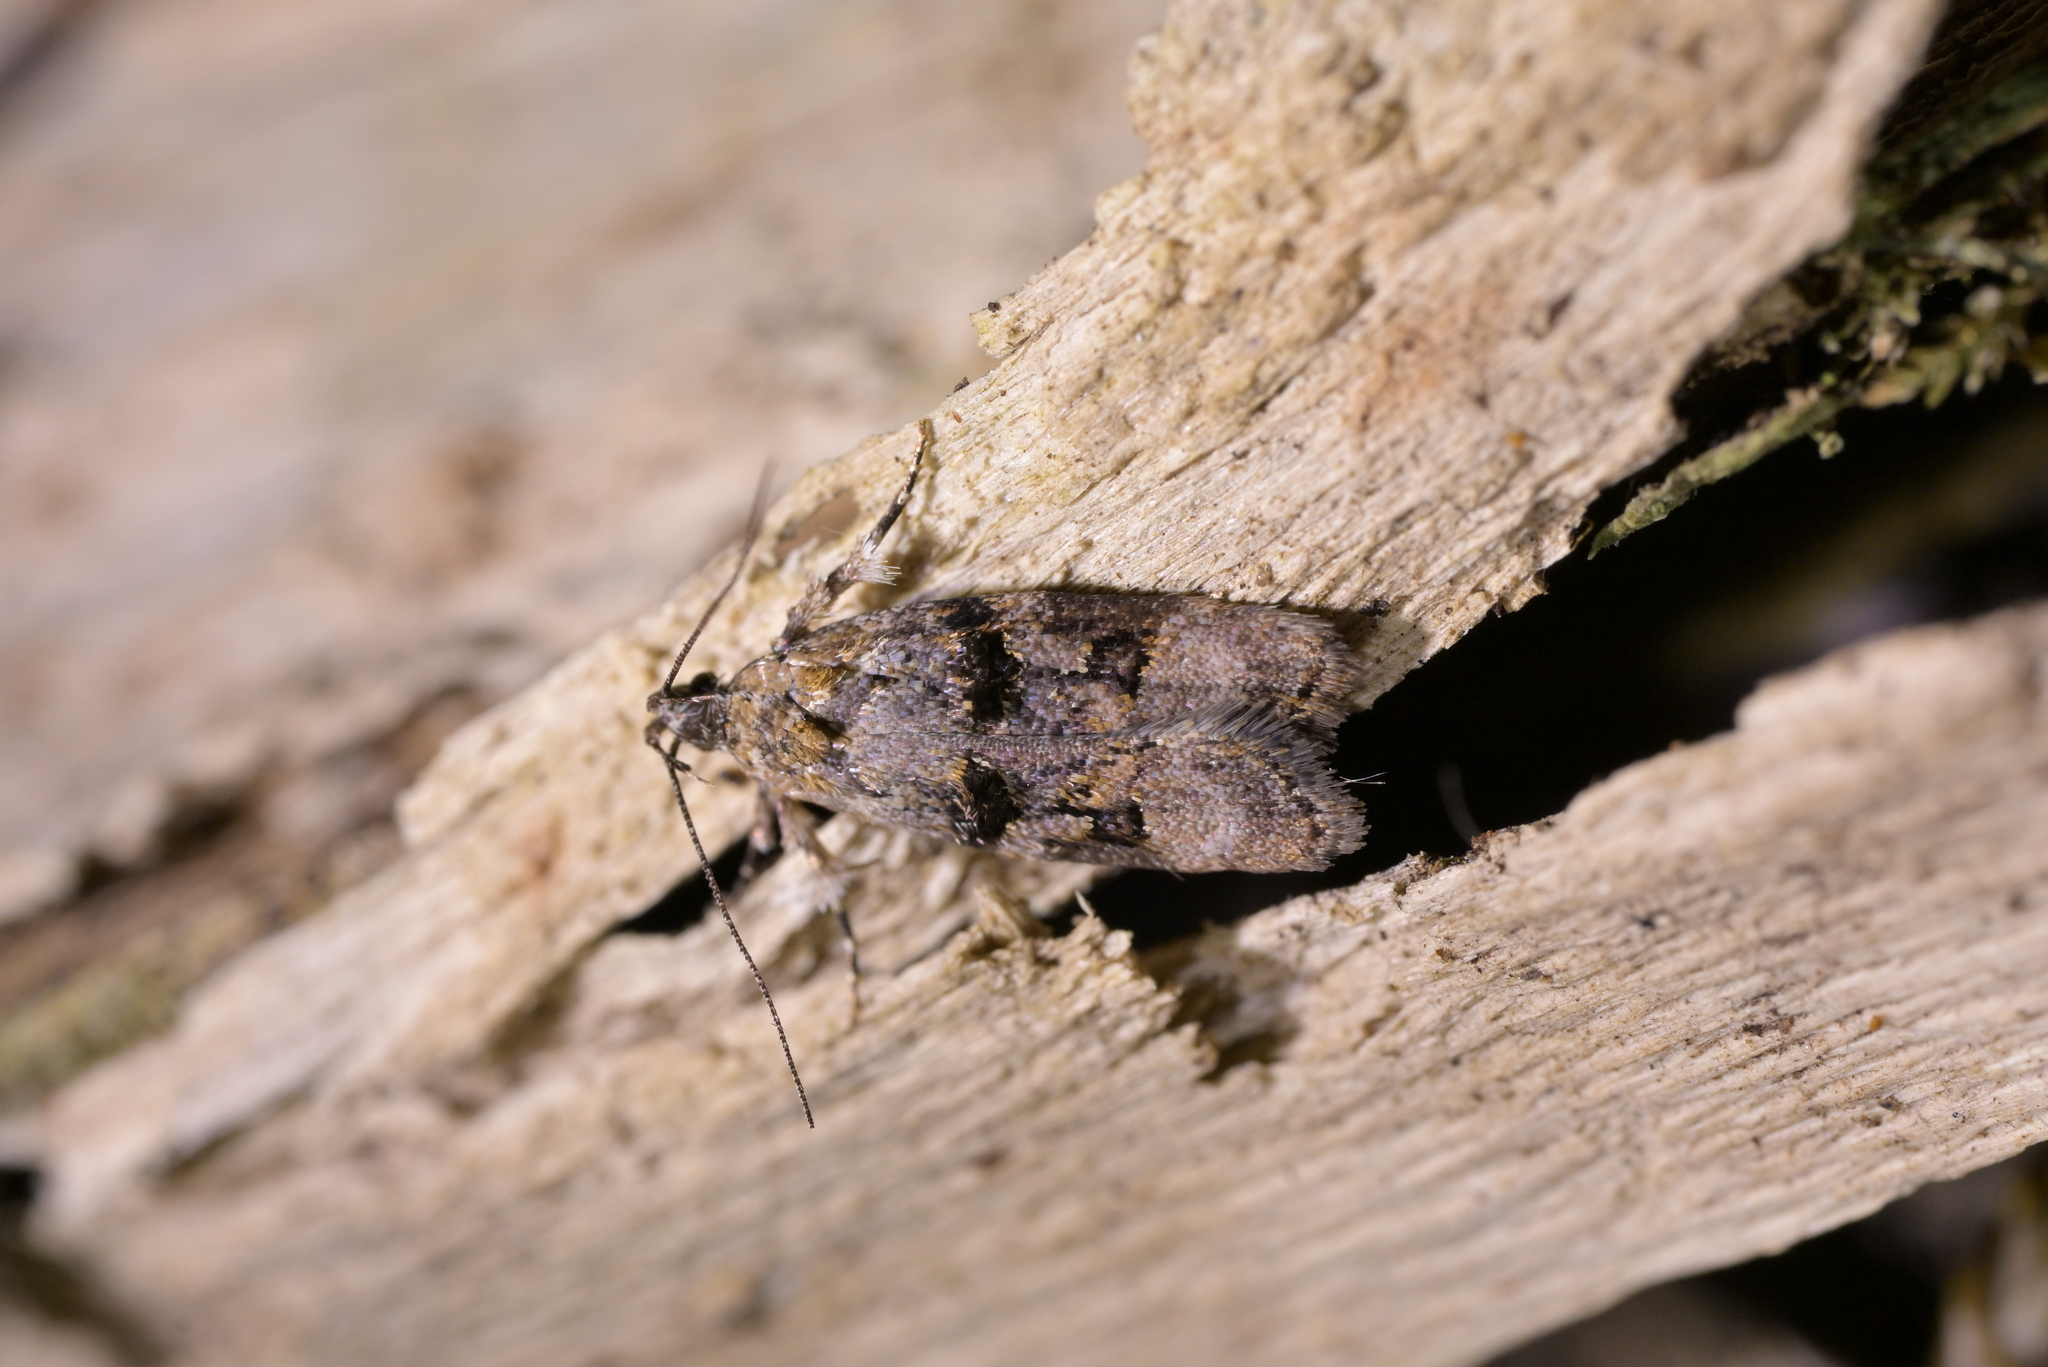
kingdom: Animalia
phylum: Arthropoda
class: Insecta
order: Lepidoptera
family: Oecophoridae
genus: Izatha
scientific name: Izatha metadelta
